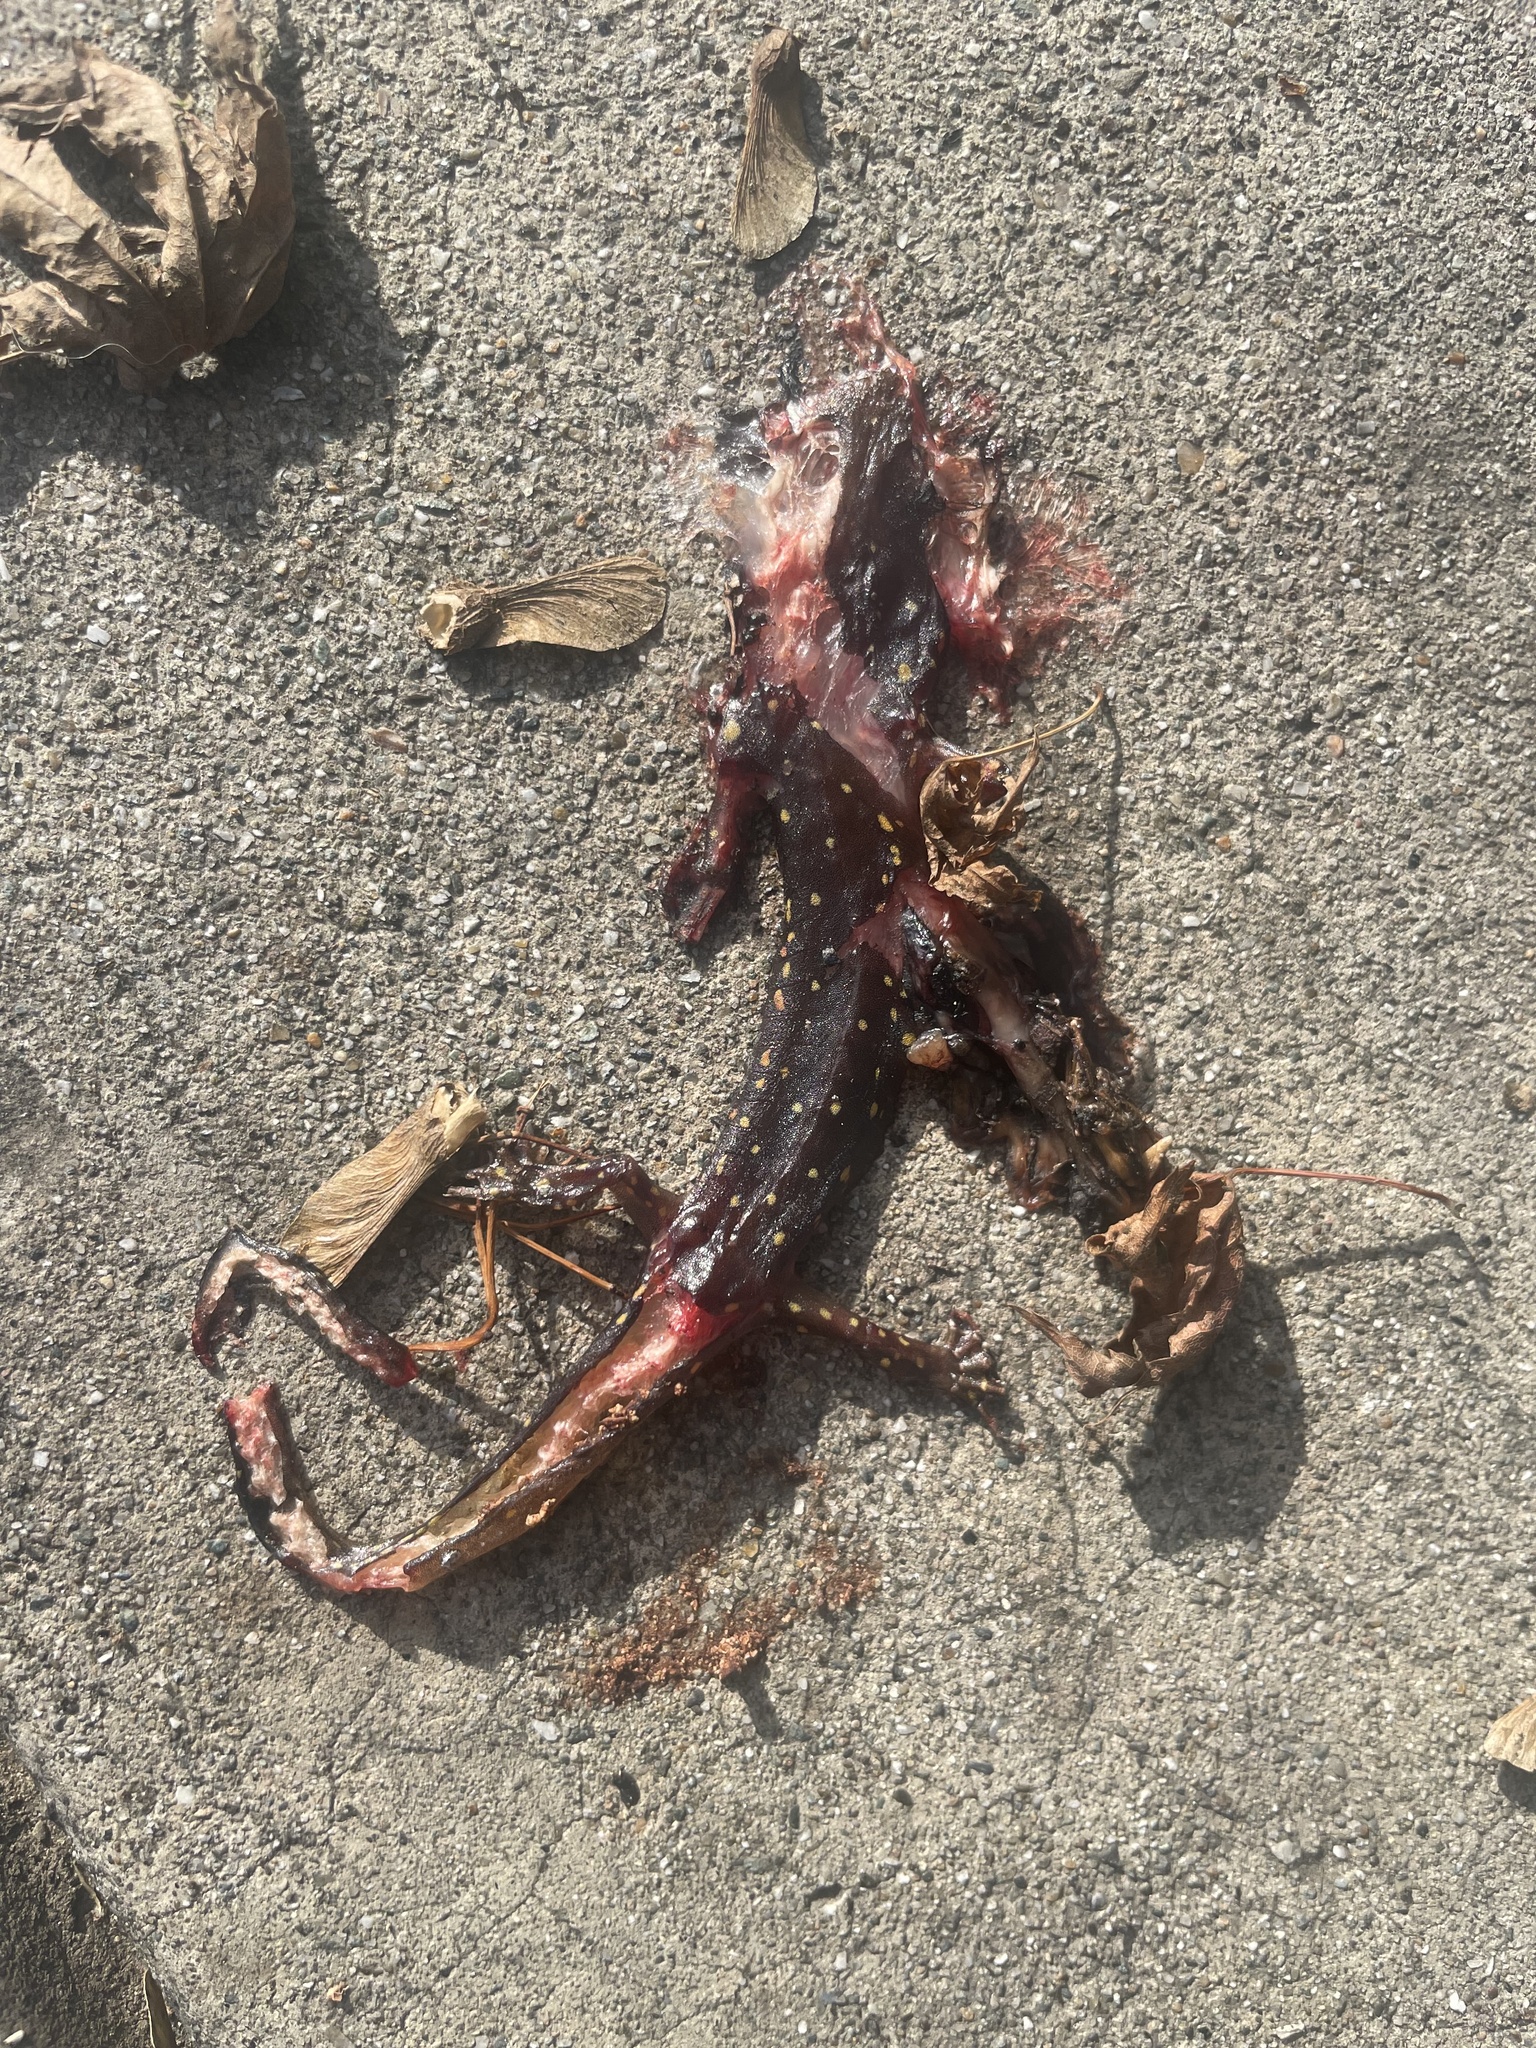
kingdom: Animalia
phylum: Chordata
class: Amphibia
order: Caudata
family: Plethodontidae
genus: Aneides
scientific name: Aneides lugubris
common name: Arboreal salamander
